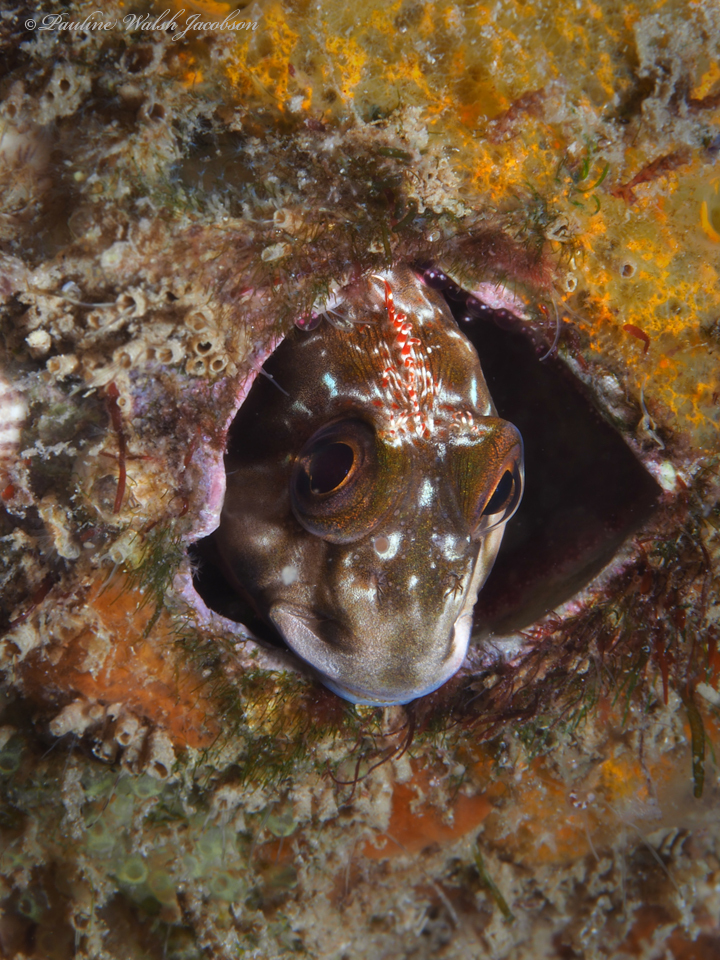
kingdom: Animalia
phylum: Chordata
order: Perciformes
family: Blenniidae
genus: Scartella
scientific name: Scartella cristata
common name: Molly miller
